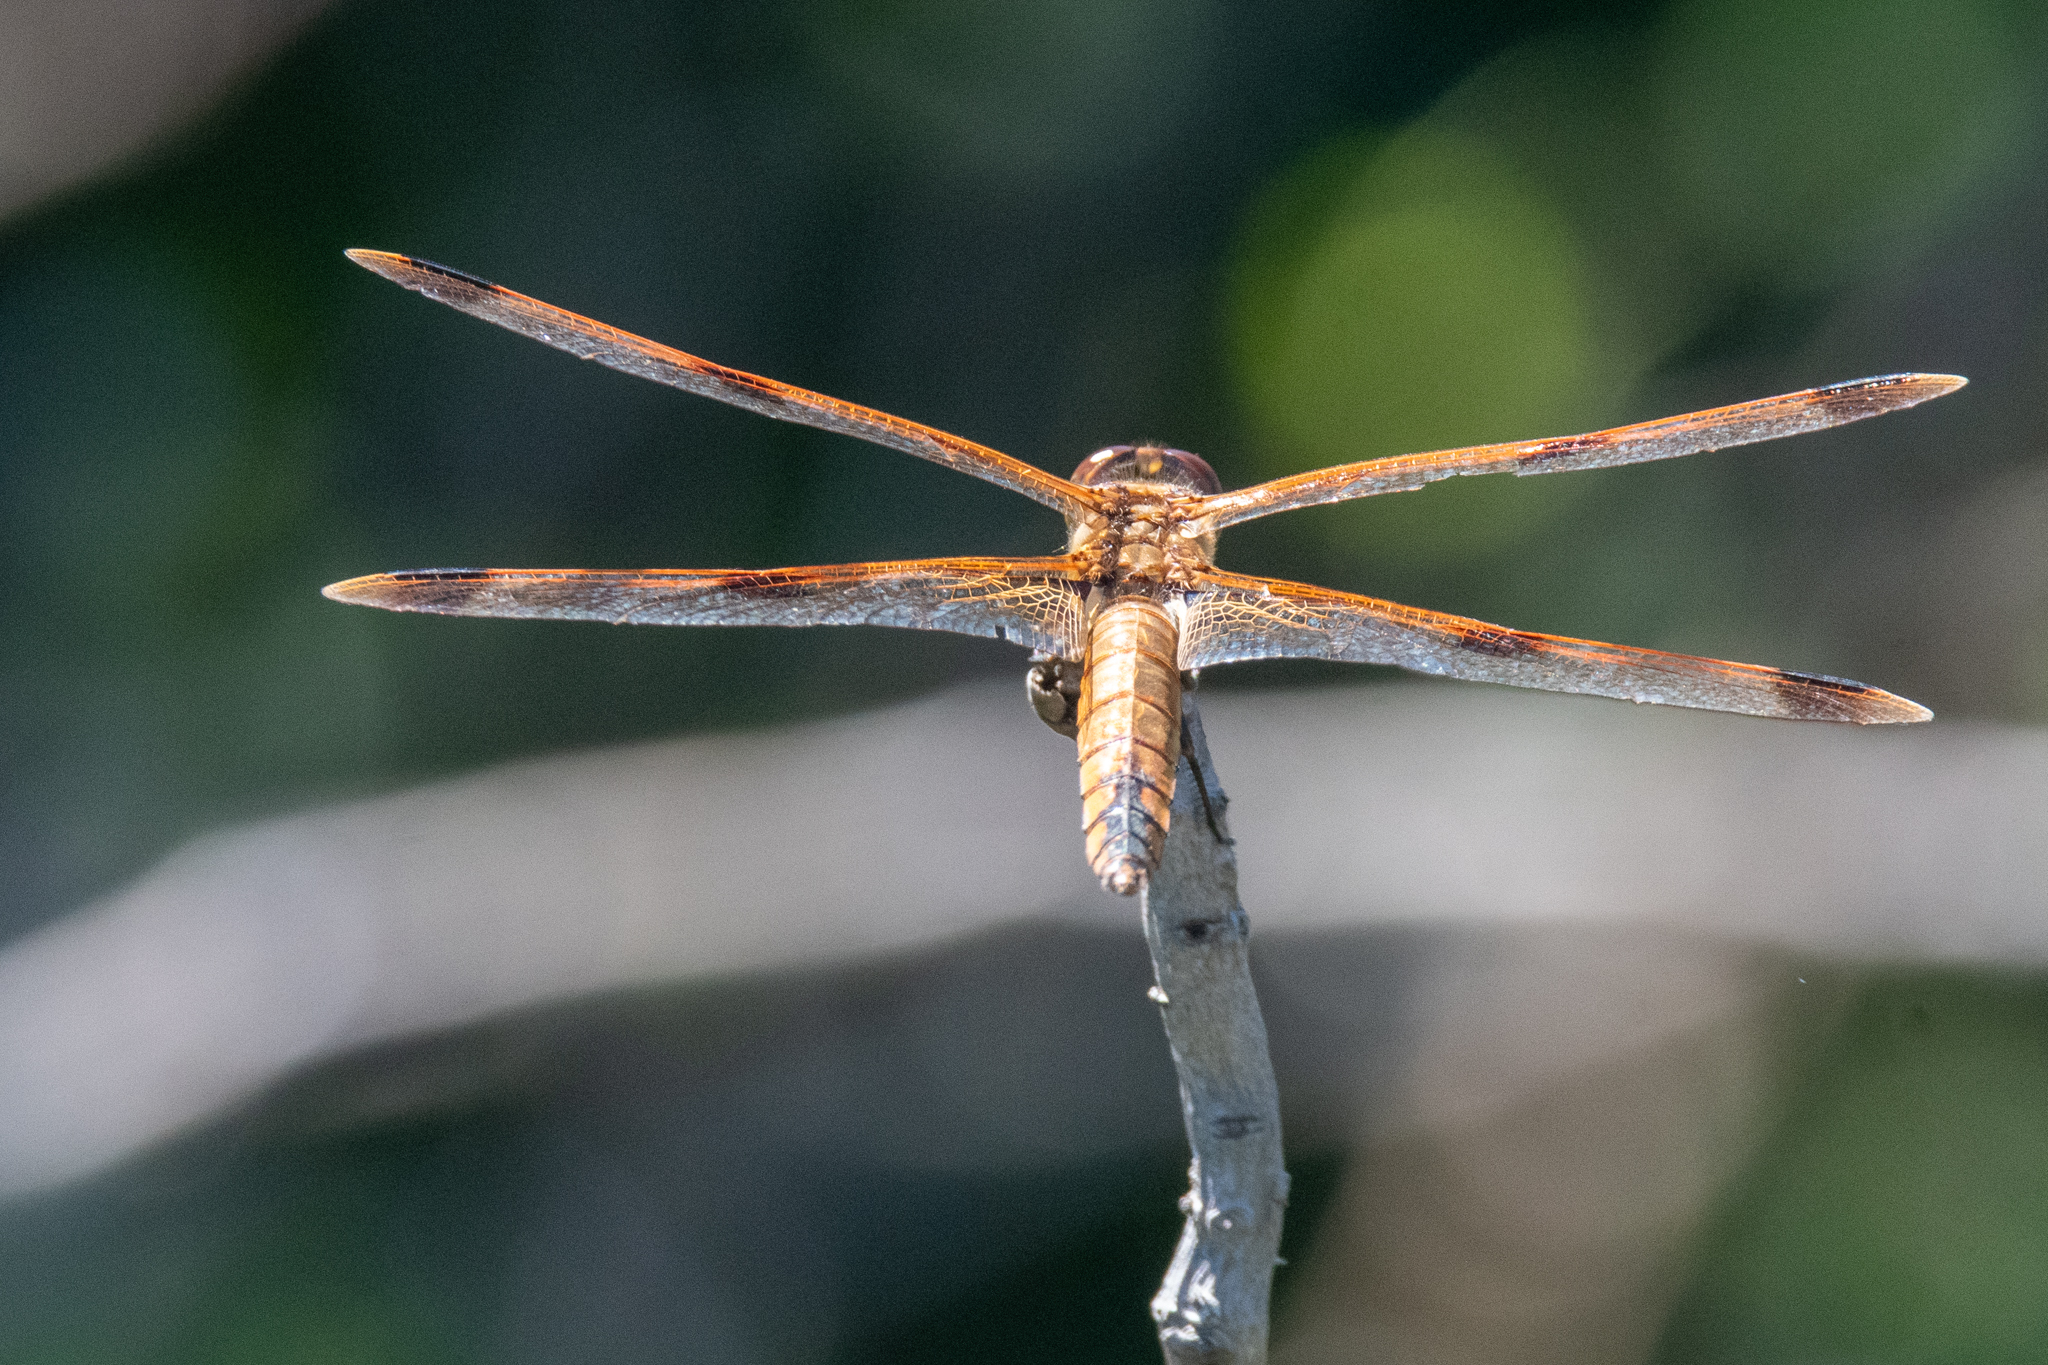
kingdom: Animalia
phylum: Arthropoda
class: Insecta
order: Odonata
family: Libellulidae
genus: Libellula
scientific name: Libellula semifasciata
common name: Painted skimmer
